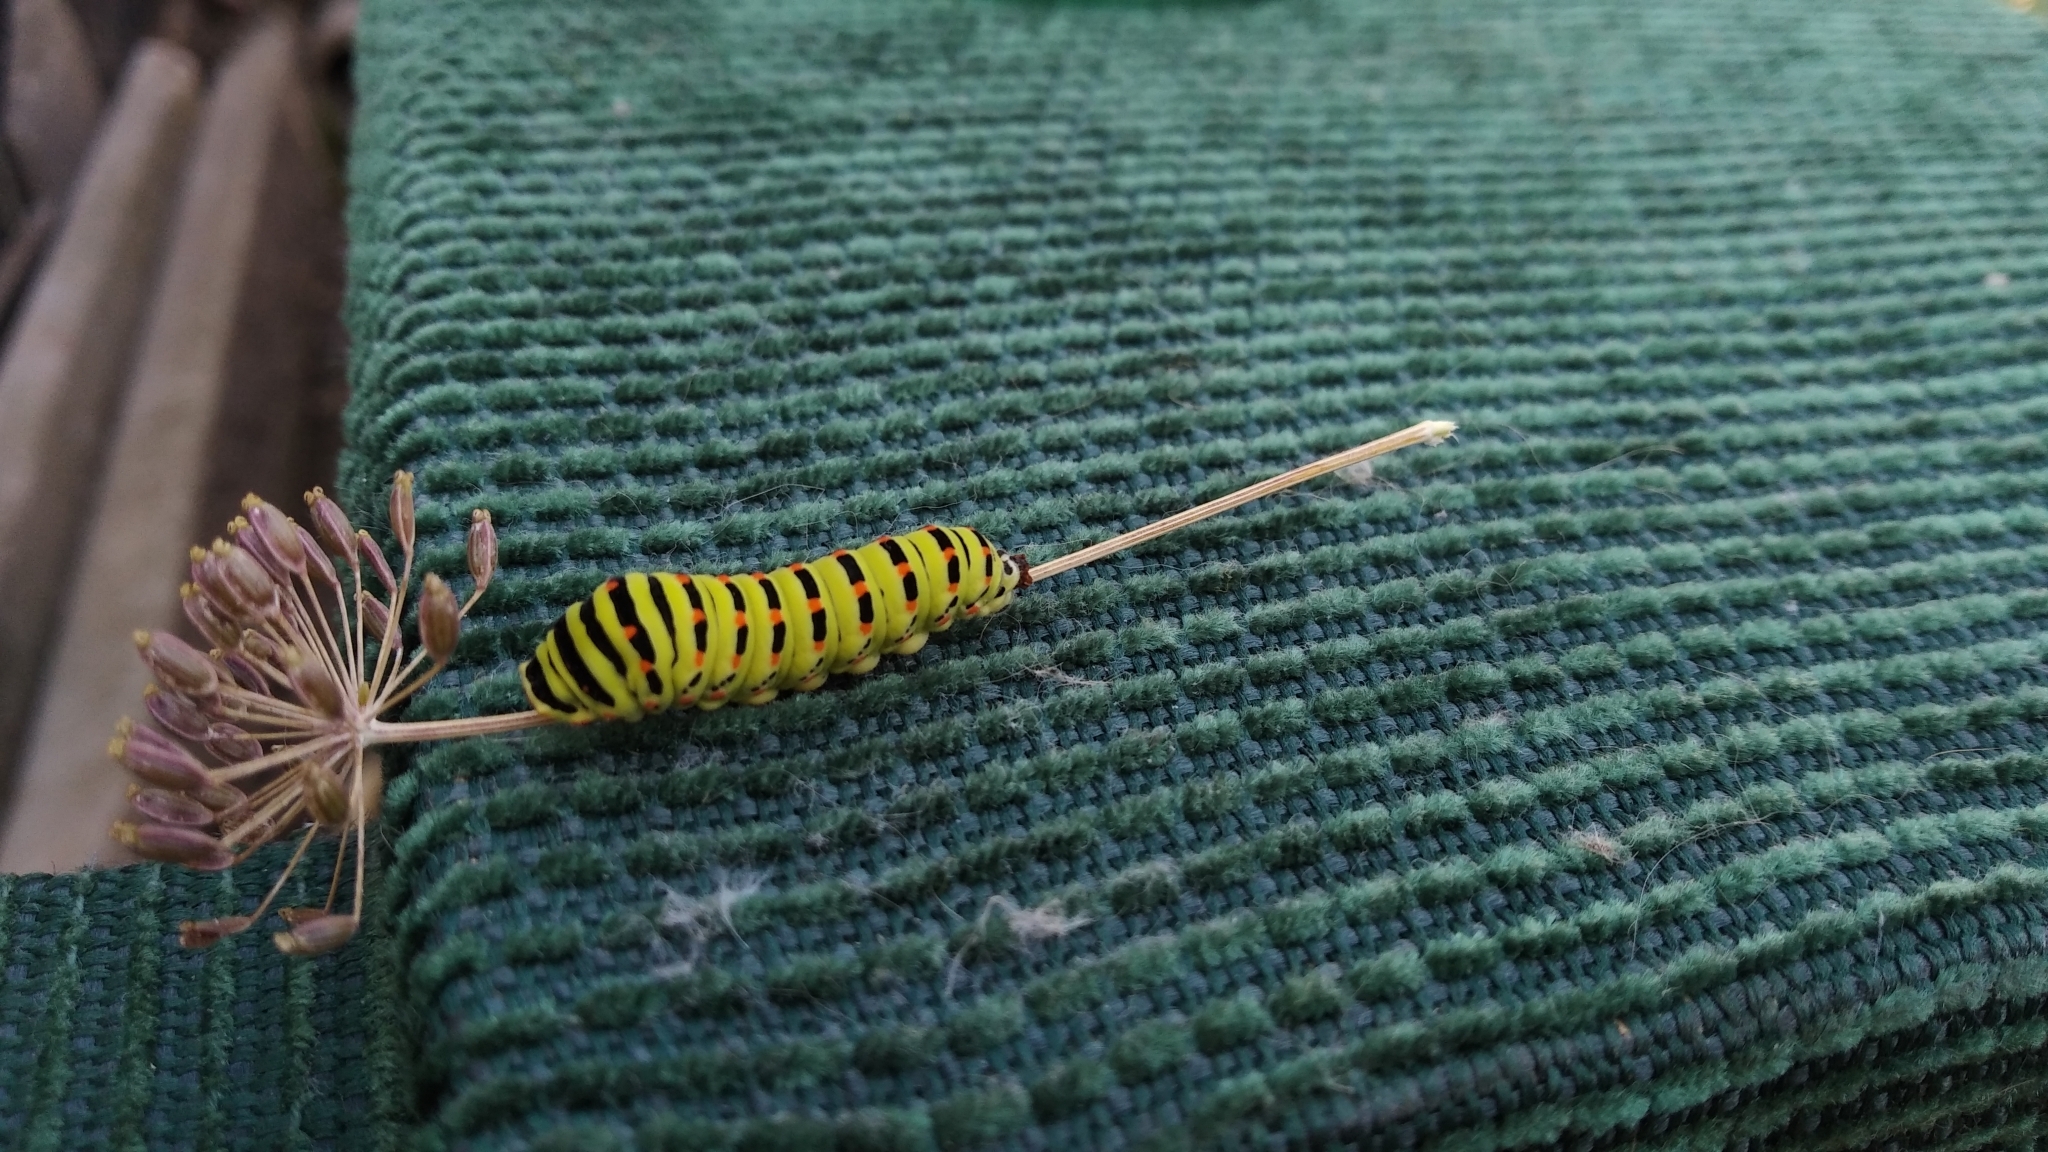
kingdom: Animalia
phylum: Arthropoda
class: Insecta
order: Lepidoptera
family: Papilionidae
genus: Papilio
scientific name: Papilio machaon
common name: Swallowtail
